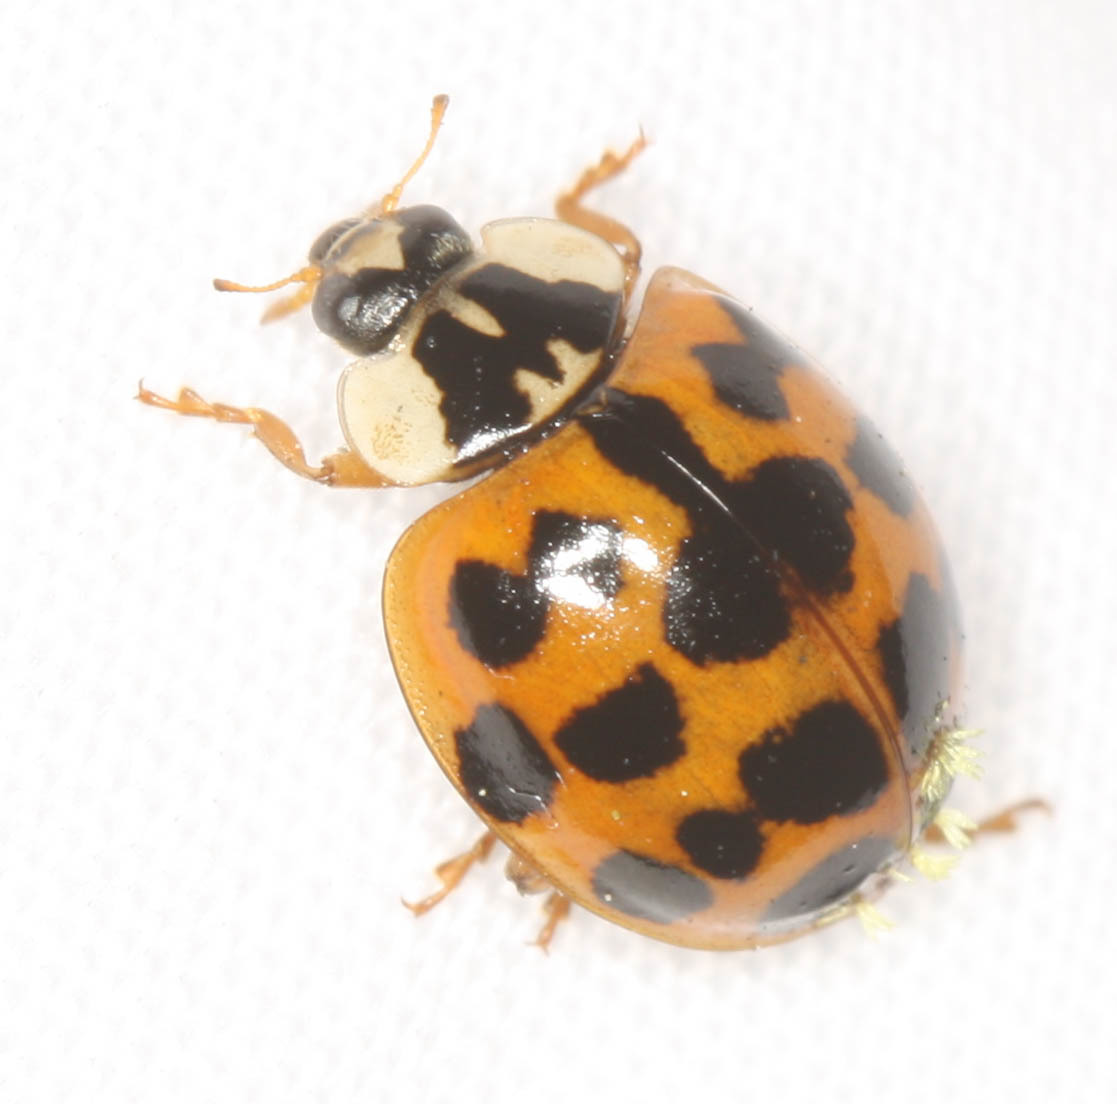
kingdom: Animalia
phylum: Arthropoda
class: Insecta
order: Coleoptera
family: Coccinellidae
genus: Harmonia
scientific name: Harmonia axyridis
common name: Harlequin ladybird
